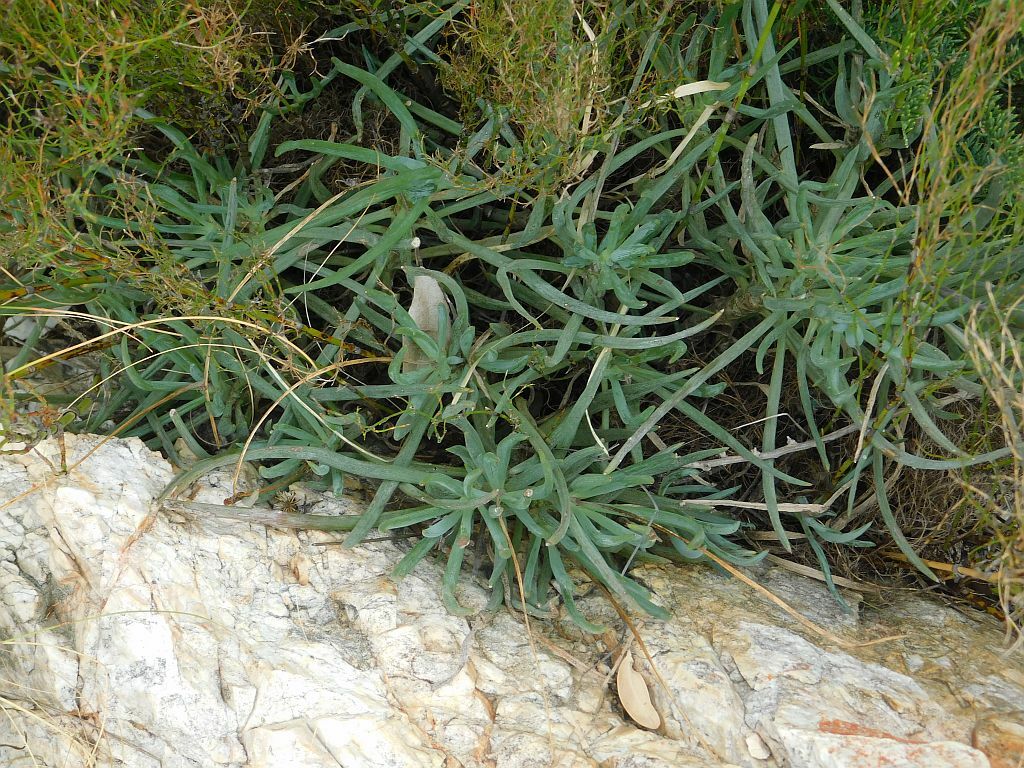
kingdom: Plantae
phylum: Tracheophyta
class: Magnoliopsida
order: Asterales
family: Asteraceae
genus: Curio
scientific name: Curio talinoides
